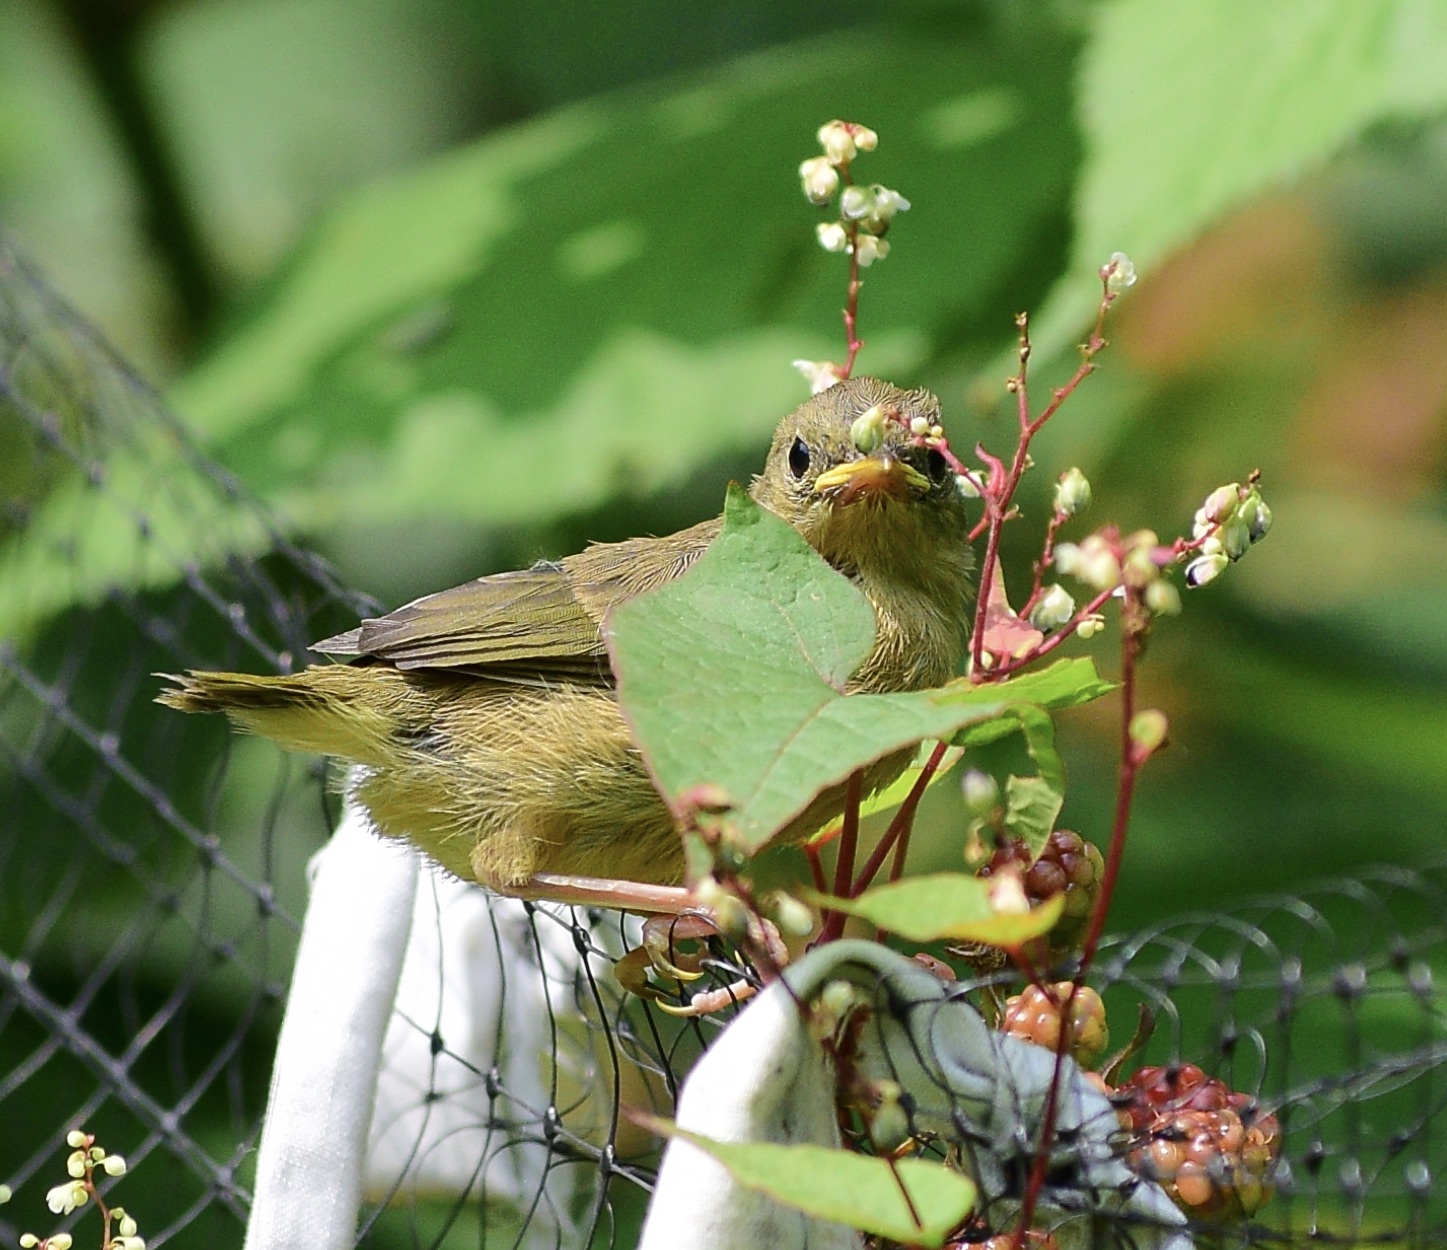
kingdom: Animalia
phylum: Chordata
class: Aves
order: Passeriformes
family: Parulidae
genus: Geothlypis
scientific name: Geothlypis trichas
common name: Common yellowthroat
